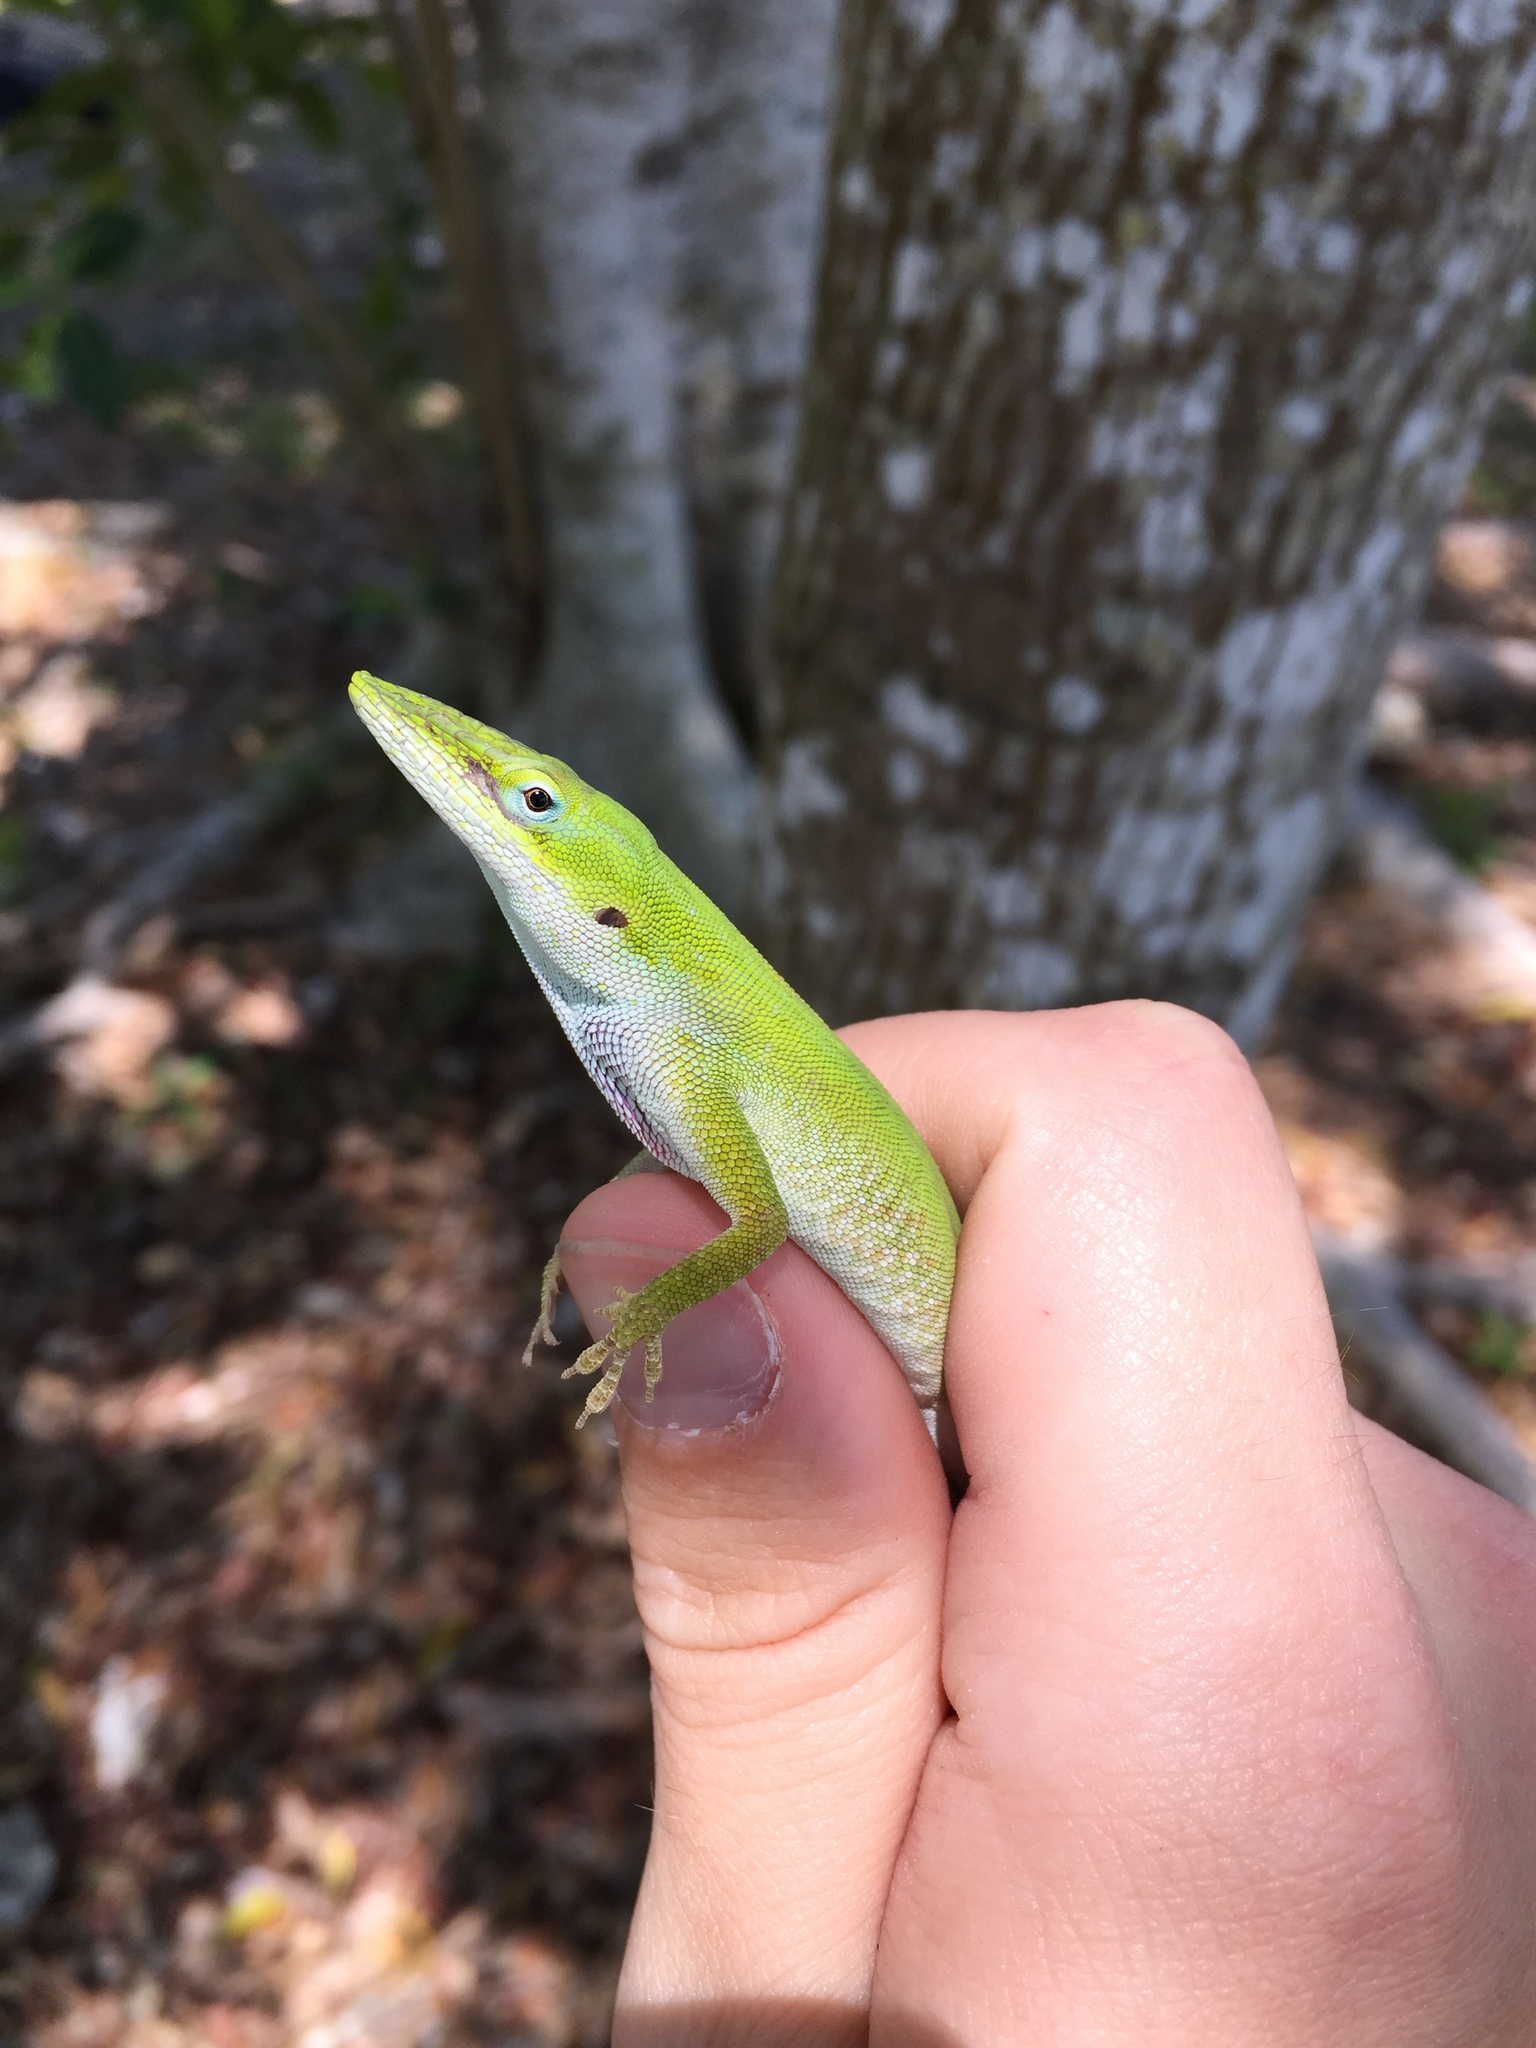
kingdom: Animalia
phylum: Chordata
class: Squamata
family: Dactyloidae
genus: Anolis
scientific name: Anolis carolinensis
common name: Green anole
